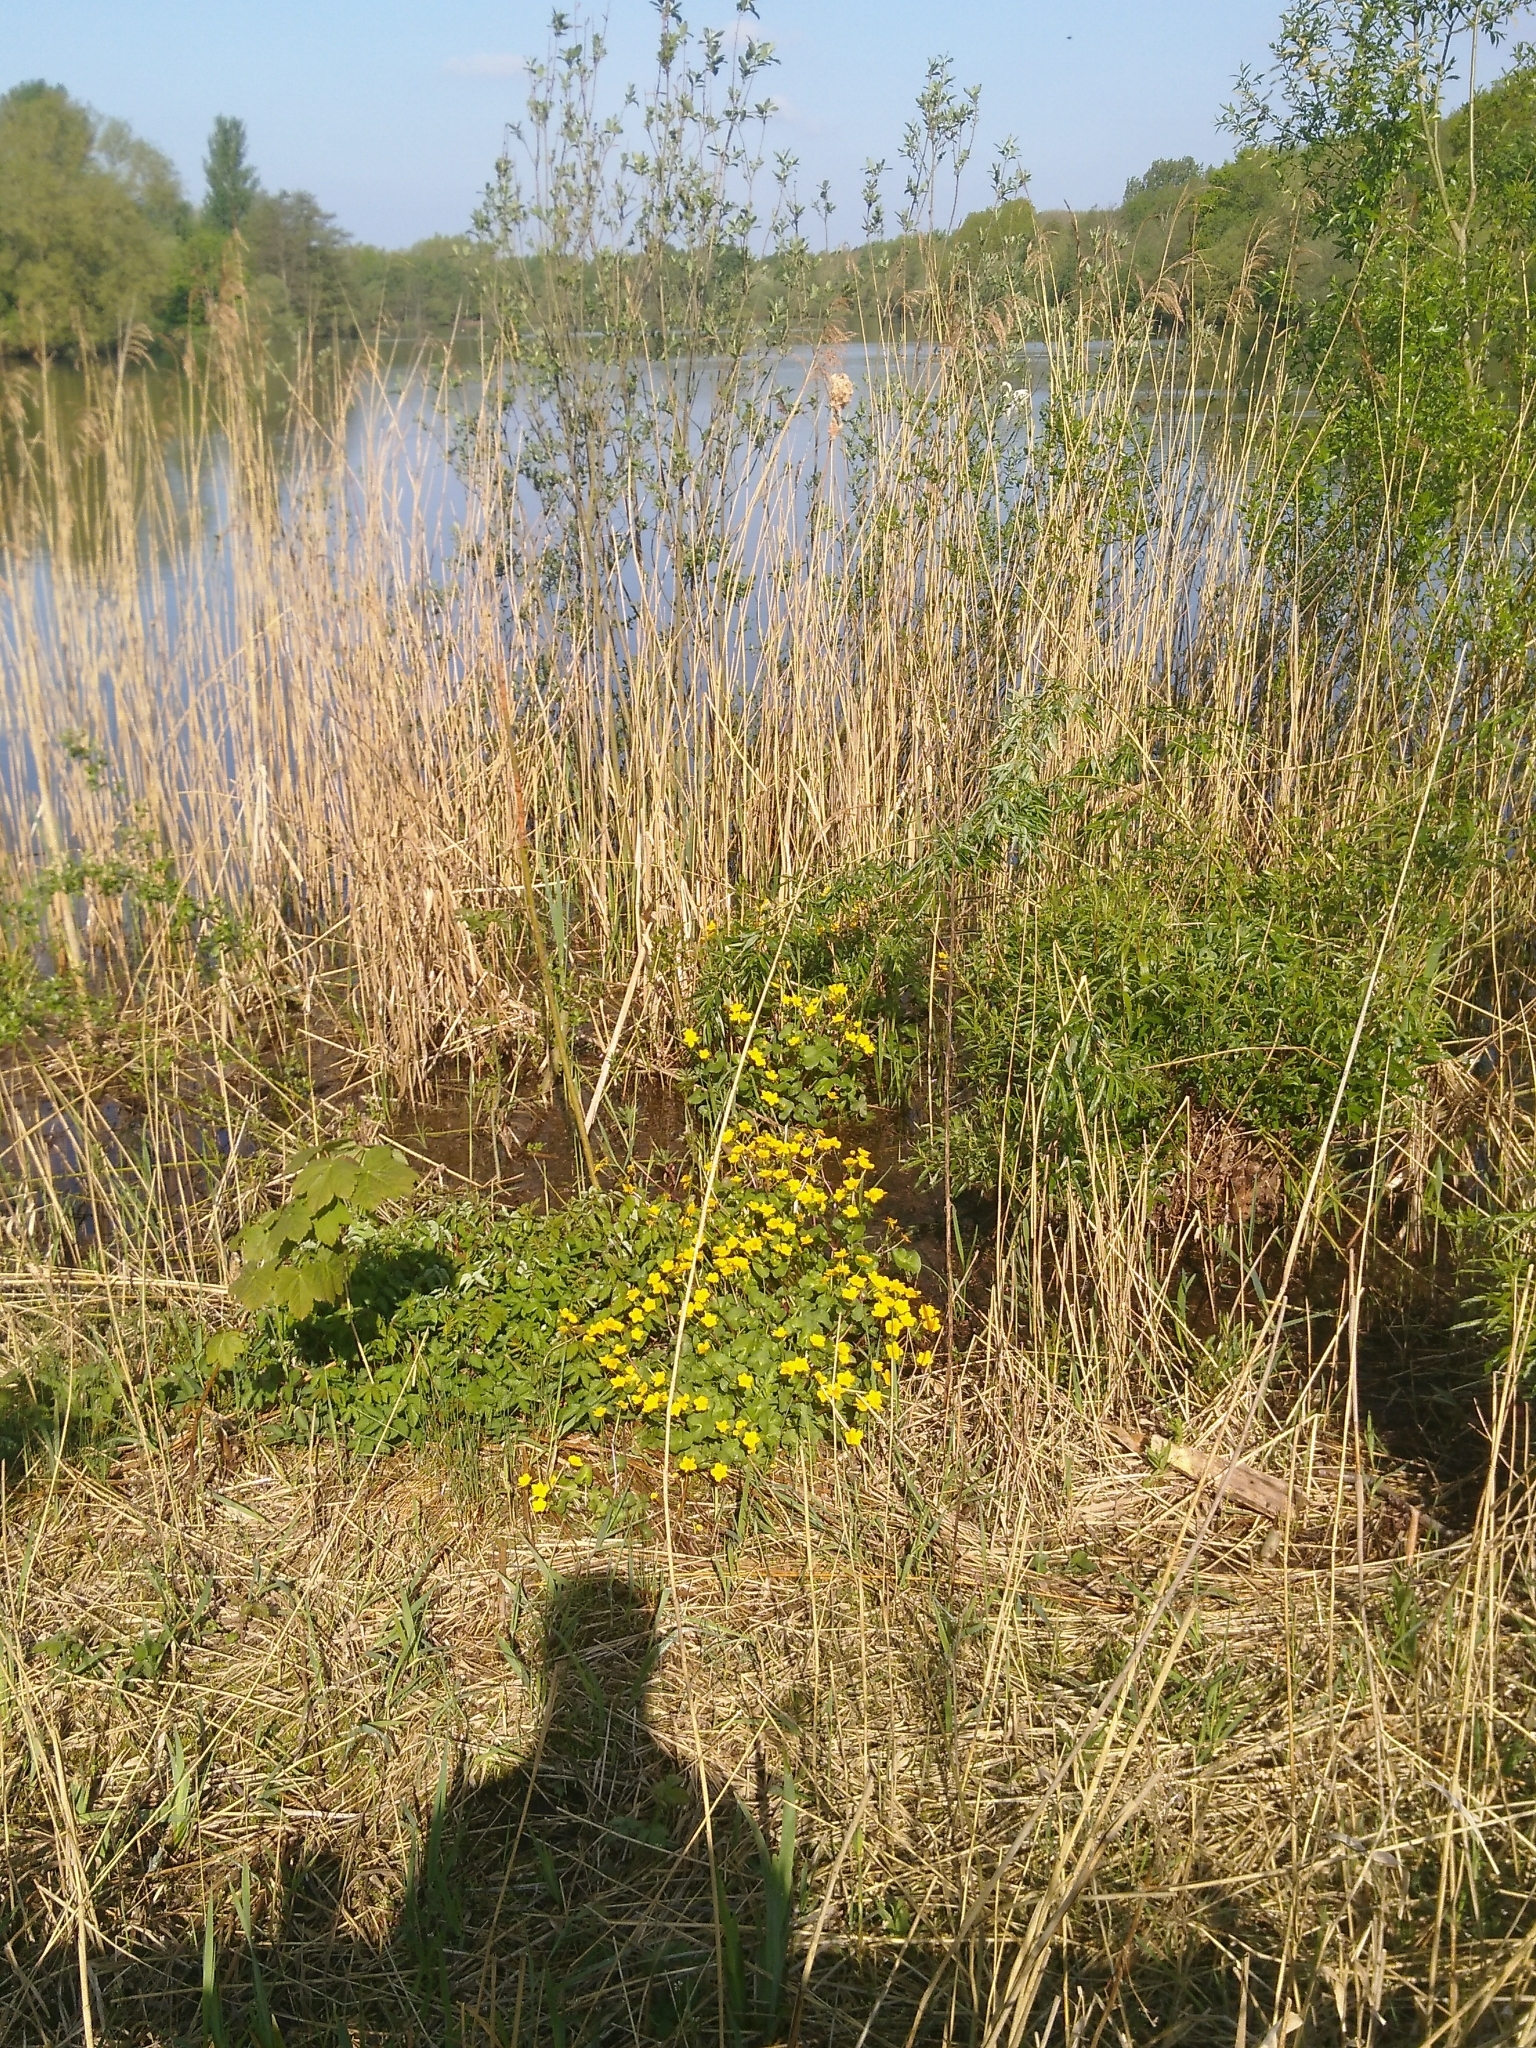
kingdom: Plantae
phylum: Tracheophyta
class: Magnoliopsida
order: Ranunculales
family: Ranunculaceae
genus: Caltha
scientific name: Caltha palustris
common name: Marsh marigold
